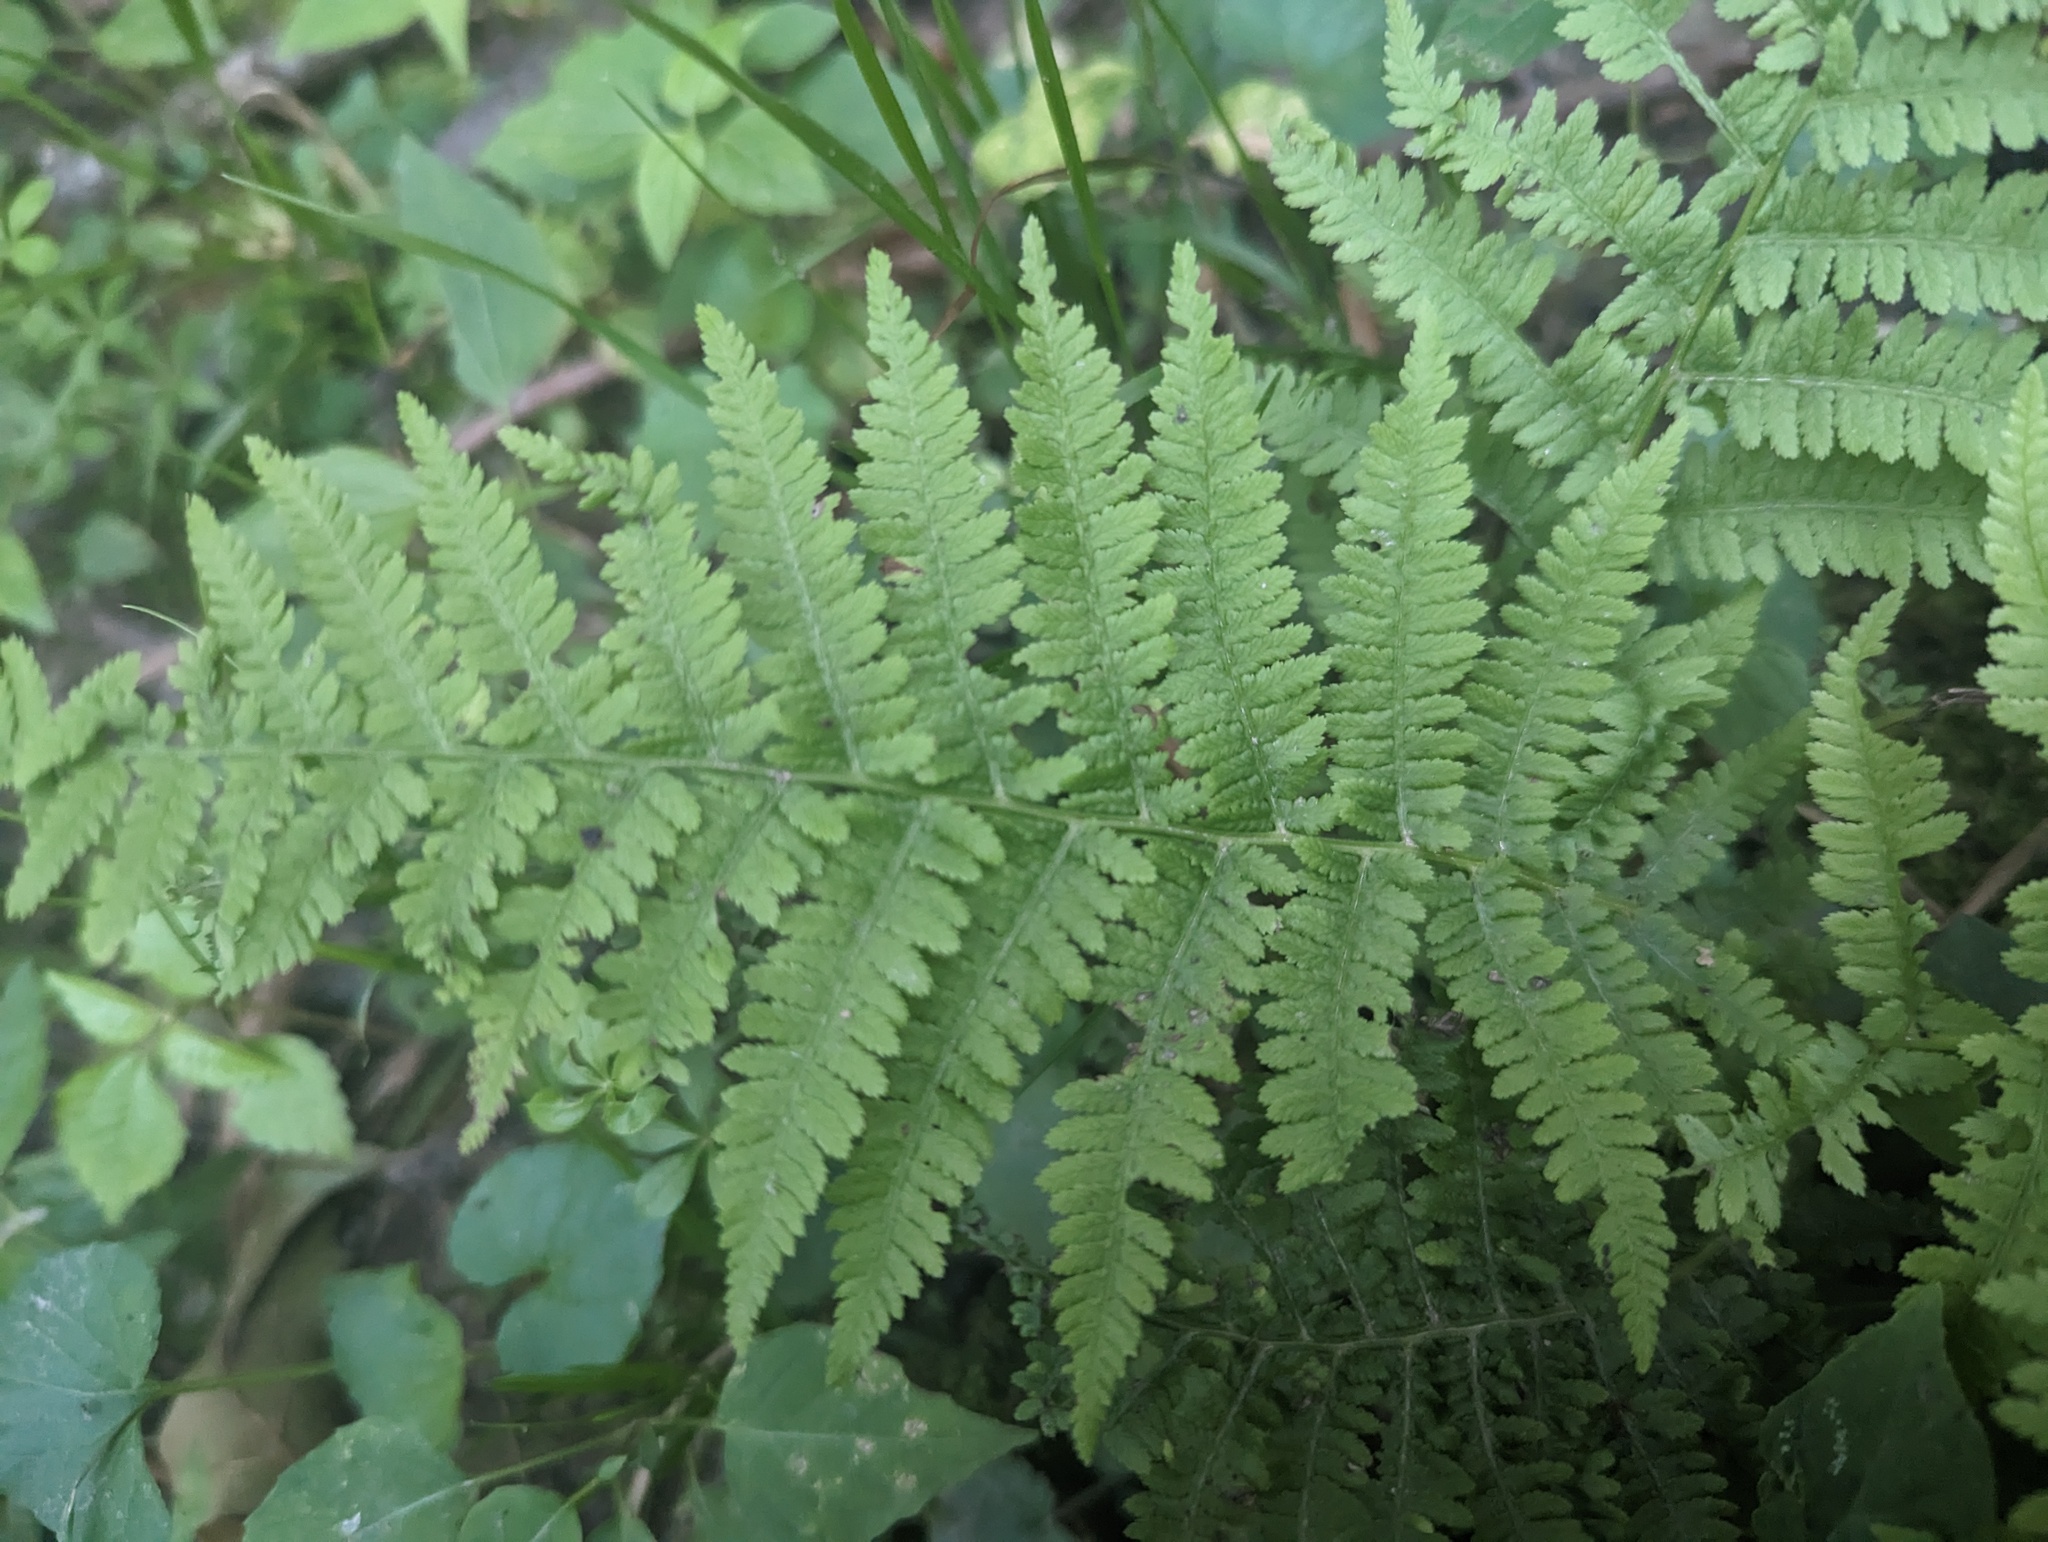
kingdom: Plantae
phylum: Tracheophyta
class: Polypodiopsida
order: Polypodiales
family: Athyriaceae
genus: Athyrium
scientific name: Athyrium angustum
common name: Northern lady fern
